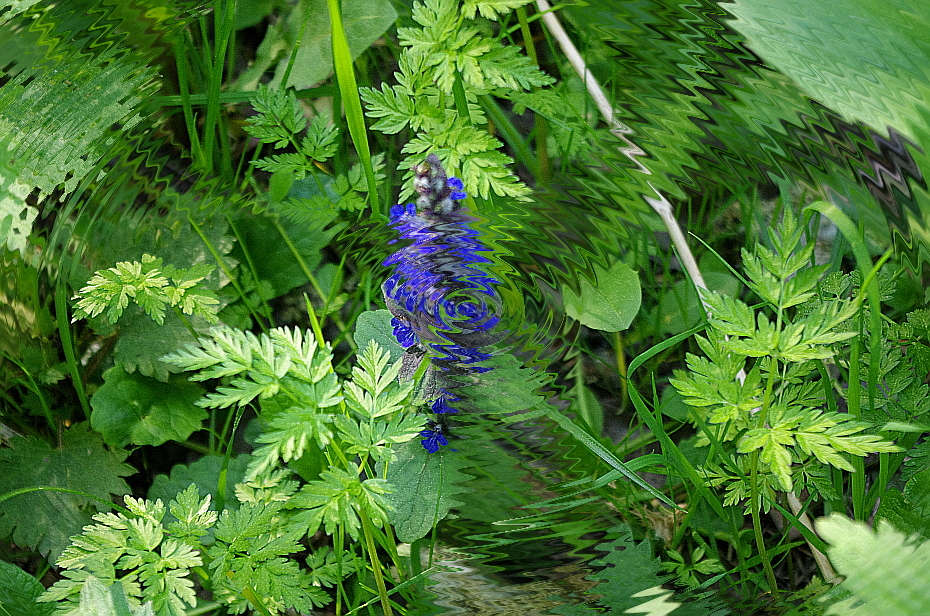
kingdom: Plantae
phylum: Tracheophyta
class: Magnoliopsida
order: Apiales
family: Apiaceae
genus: Anthriscus
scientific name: Anthriscus sylvestris
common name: Cow parsley
